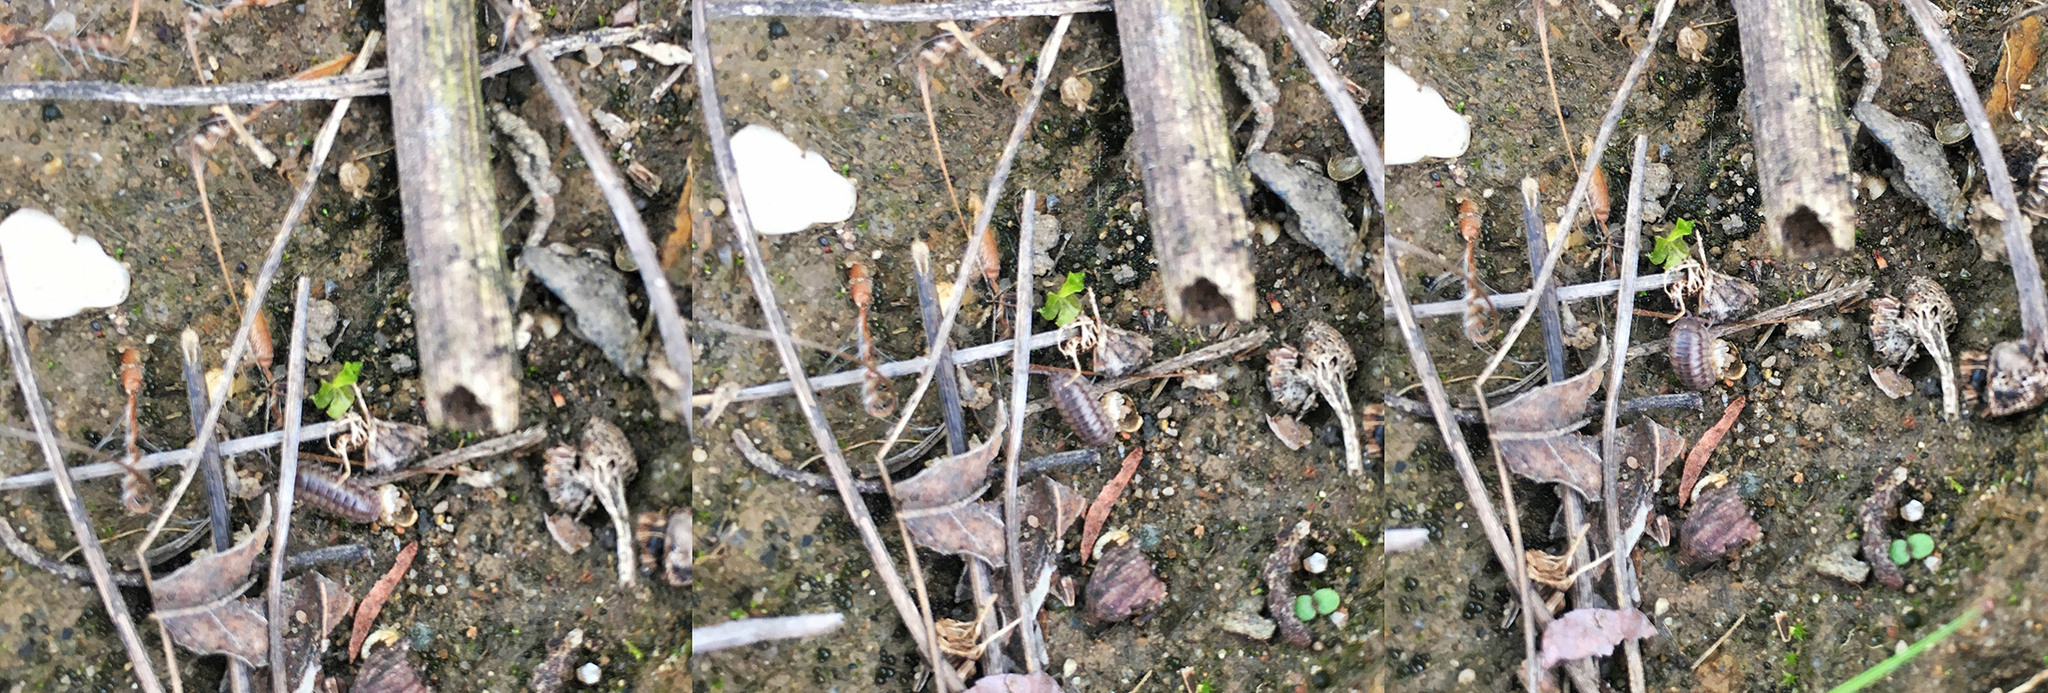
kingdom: Animalia
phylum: Arthropoda
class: Malacostraca
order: Isopoda
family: Armadillidiidae
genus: Armadillidium
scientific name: Armadillidium nasatum
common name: Isopod
